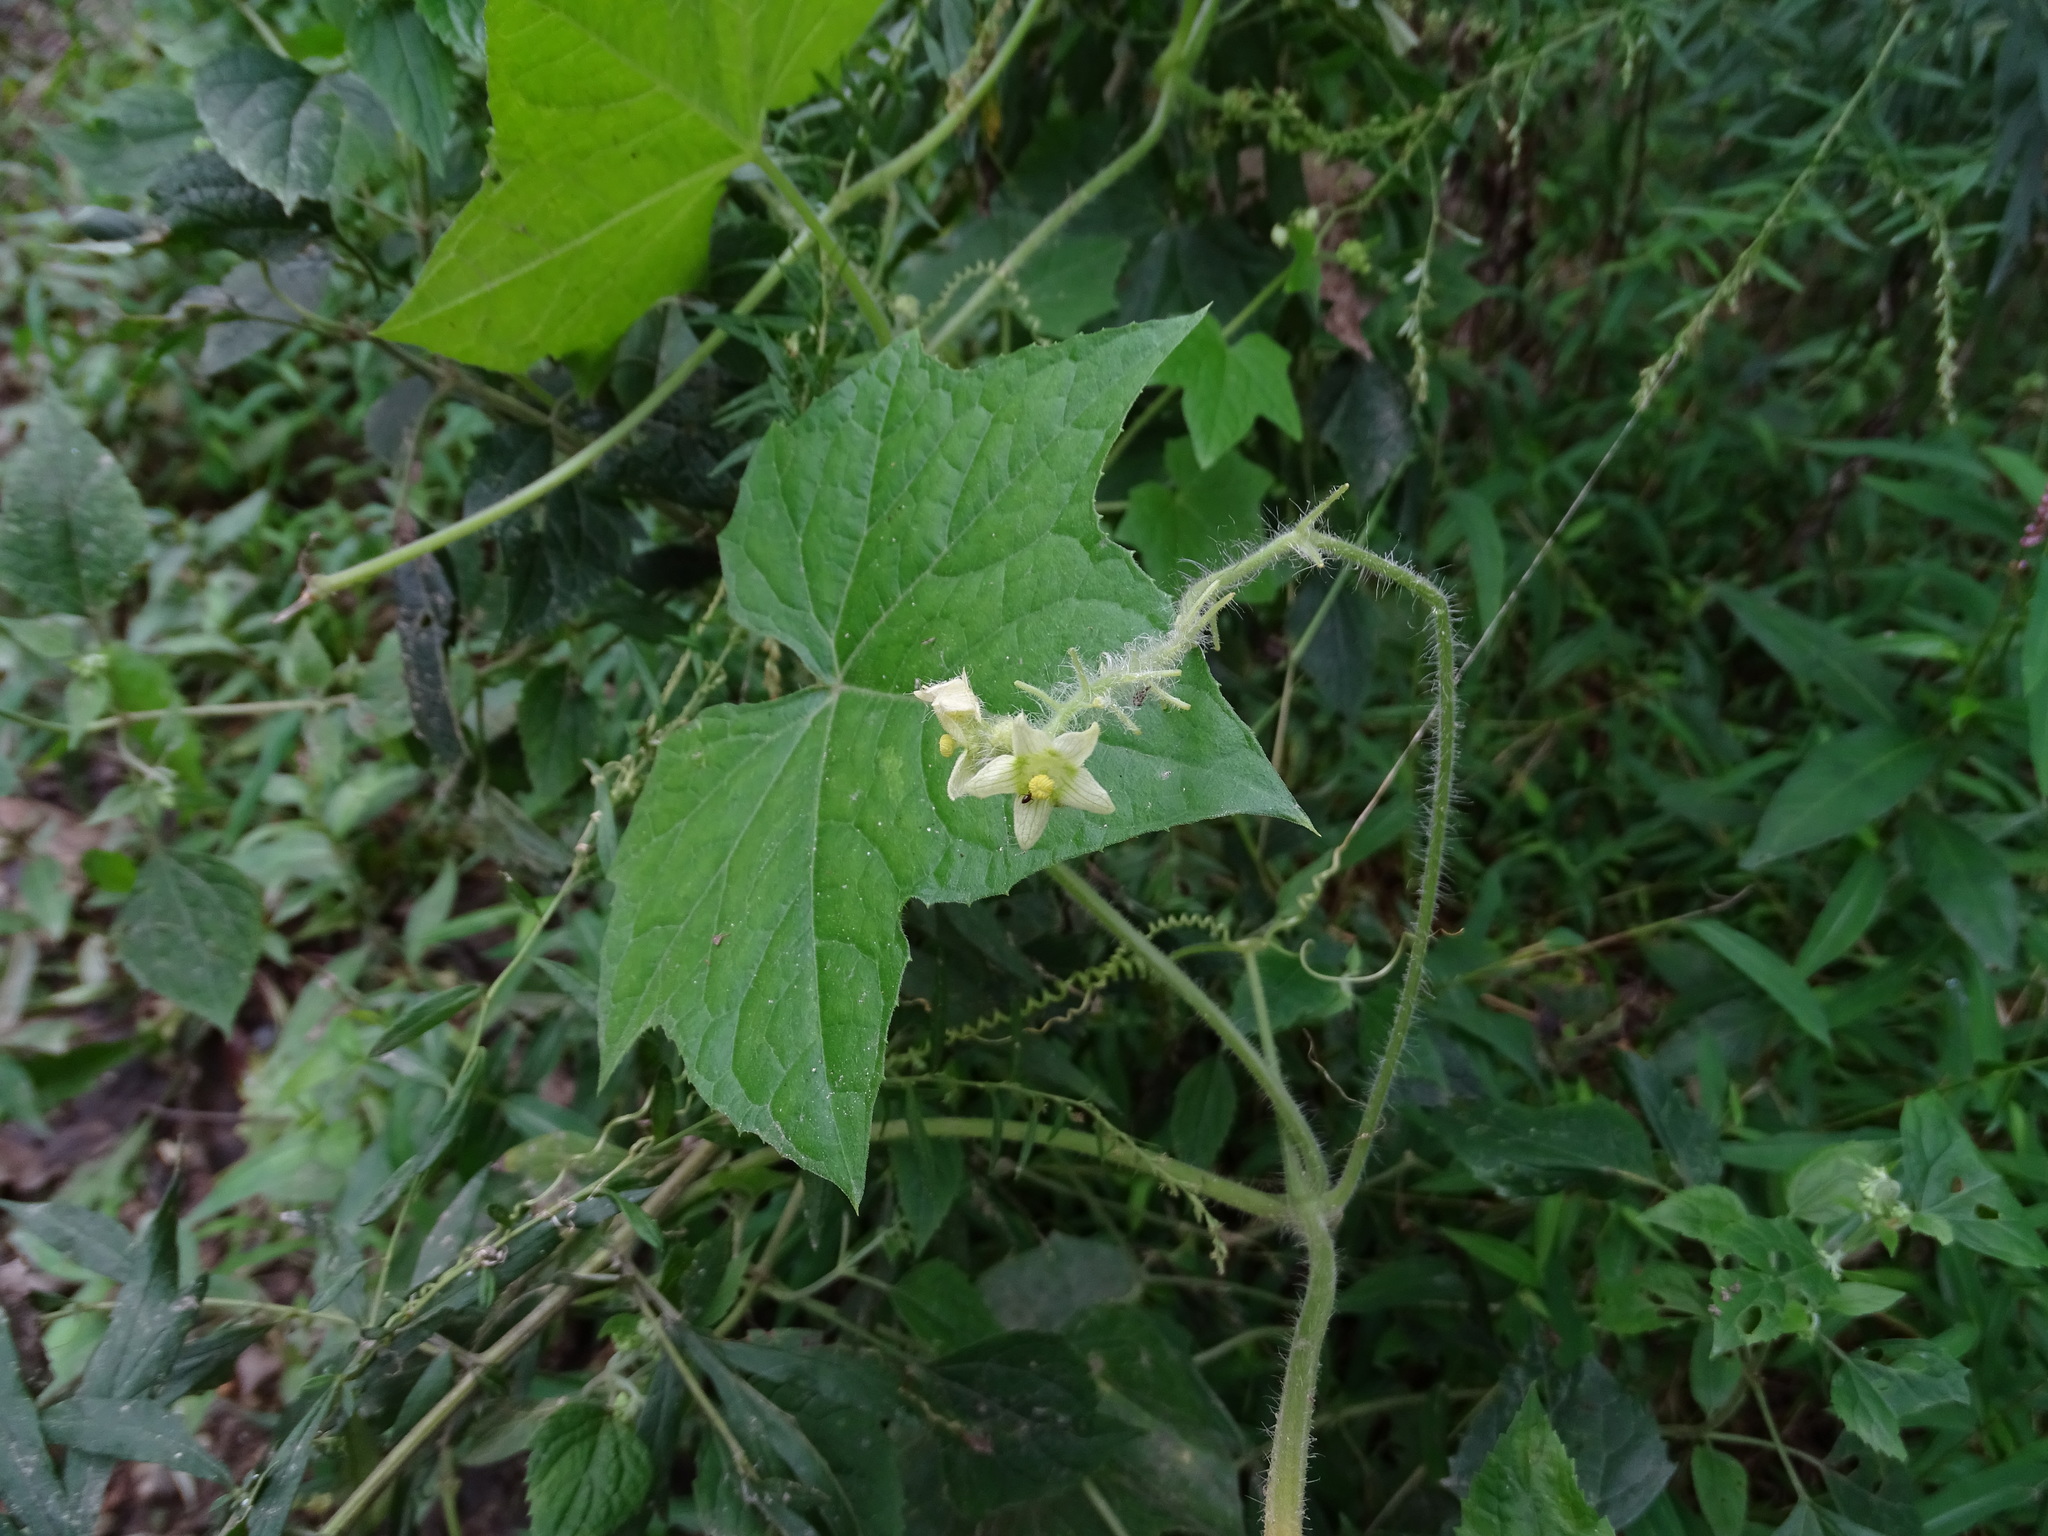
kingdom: Plantae
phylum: Tracheophyta
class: Magnoliopsida
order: Cucurbitales
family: Cucurbitaceae
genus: Sicyos
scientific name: Sicyos angulatus
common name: Angled burr cucumber
